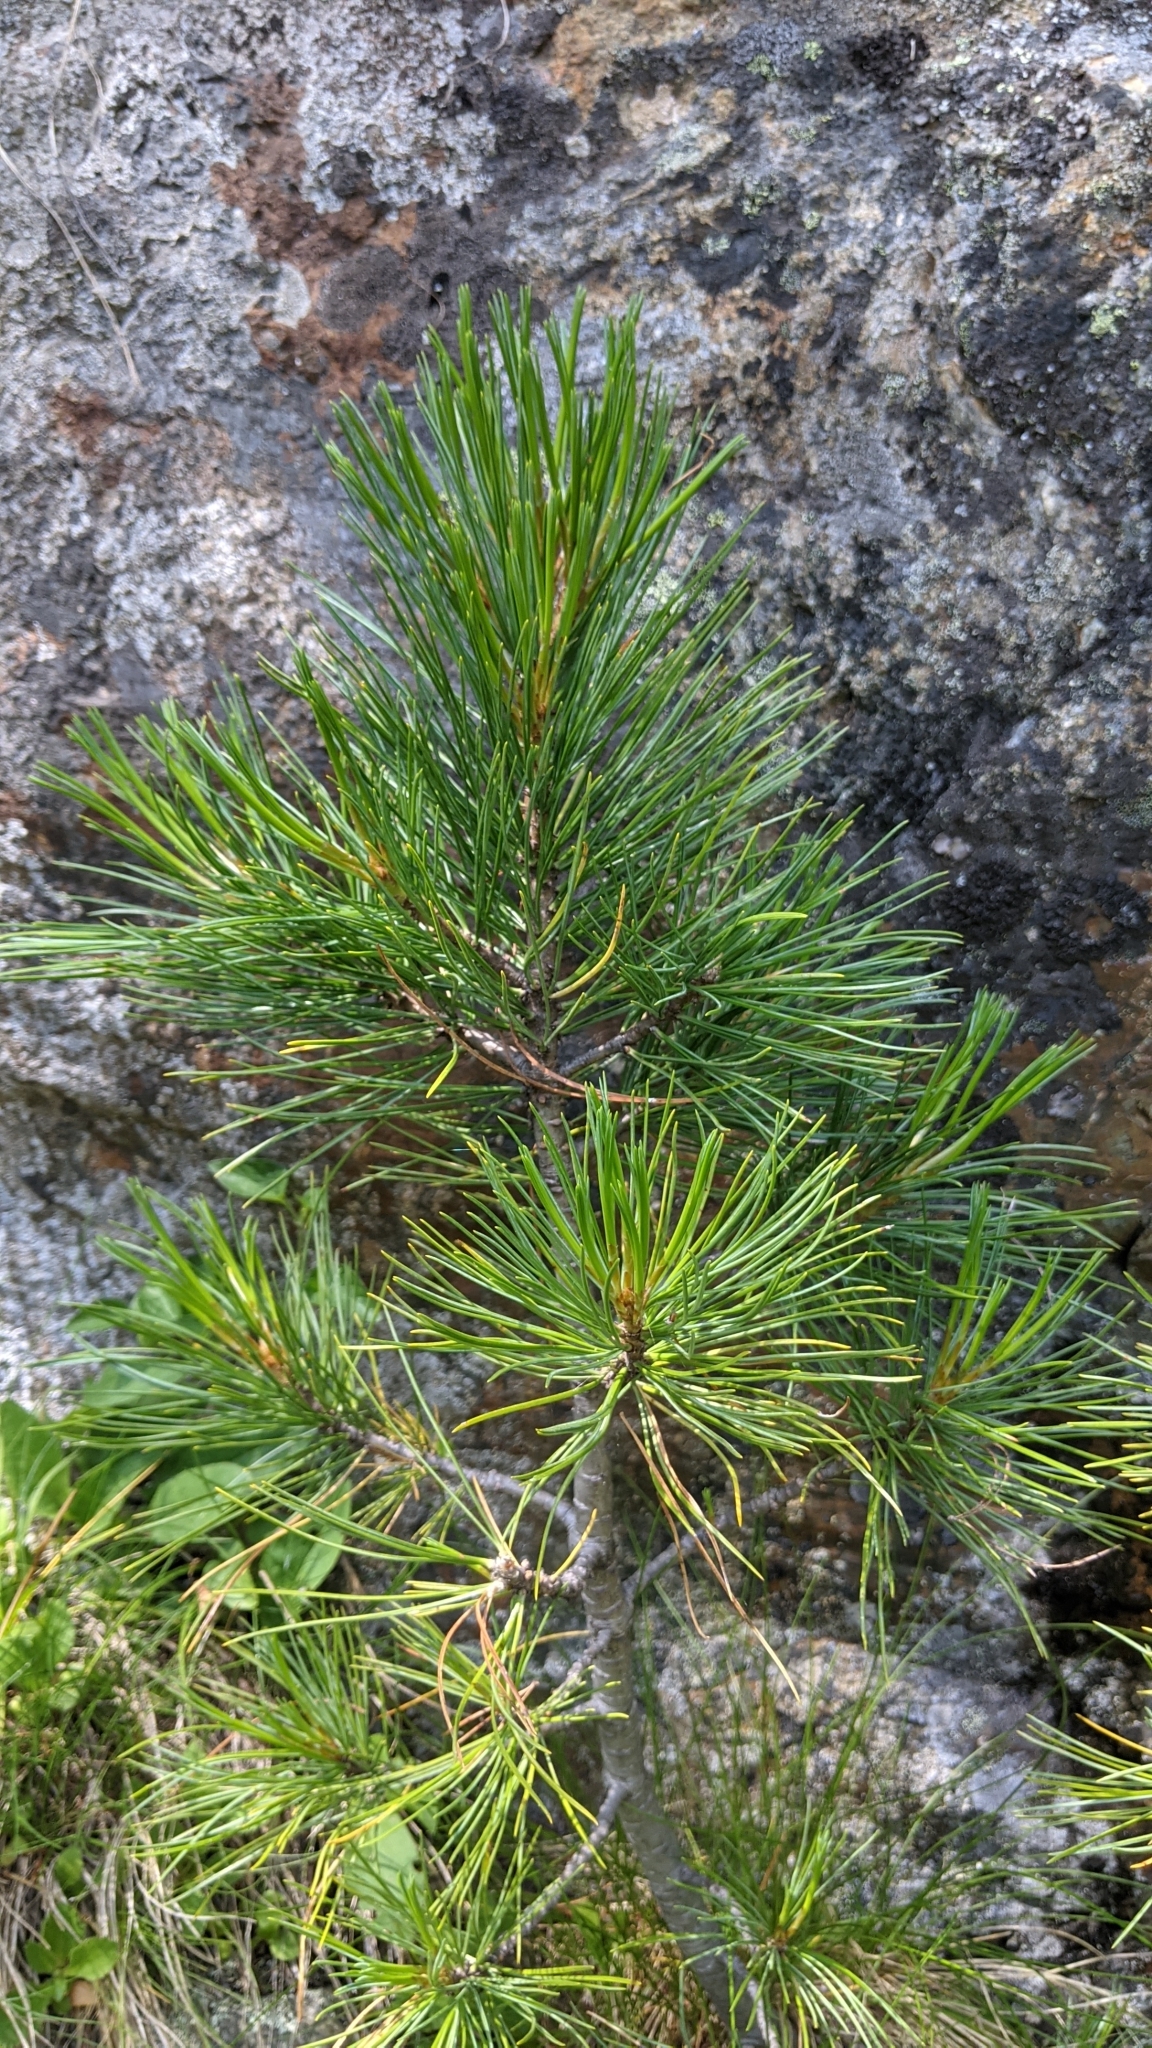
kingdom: Plantae
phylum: Tracheophyta
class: Pinopsida
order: Pinales
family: Pinaceae
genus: Pinus
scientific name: Pinus cembra
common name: Arolla pine
